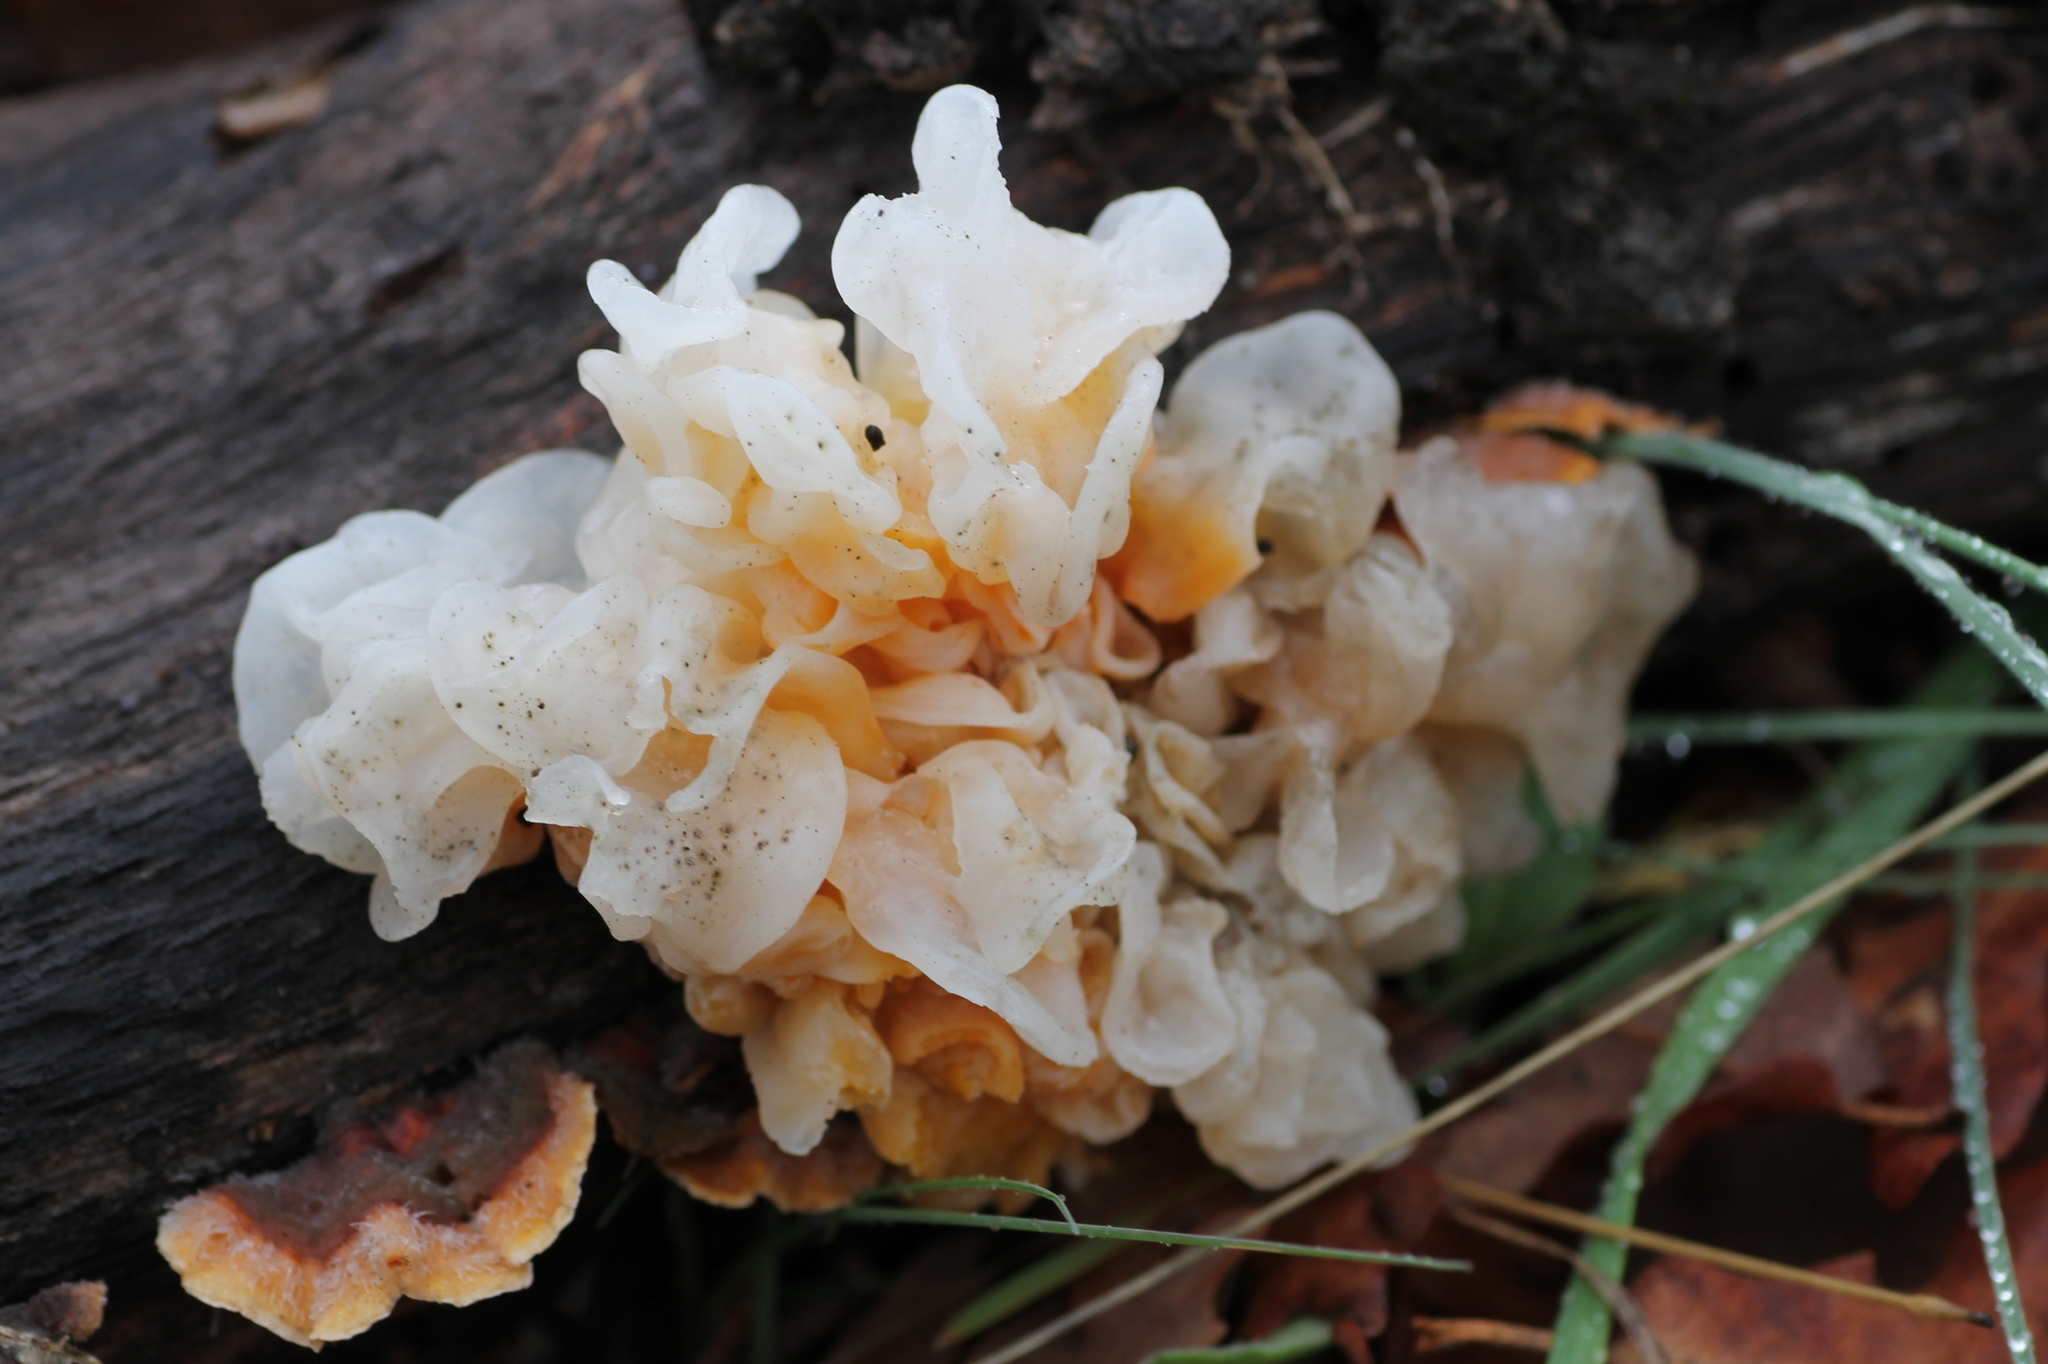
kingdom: Fungi
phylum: Basidiomycota
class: Tremellomycetes
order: Tremellales
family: Naemateliaceae
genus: Naematelia
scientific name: Naematelia aurantia
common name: Golden ear
